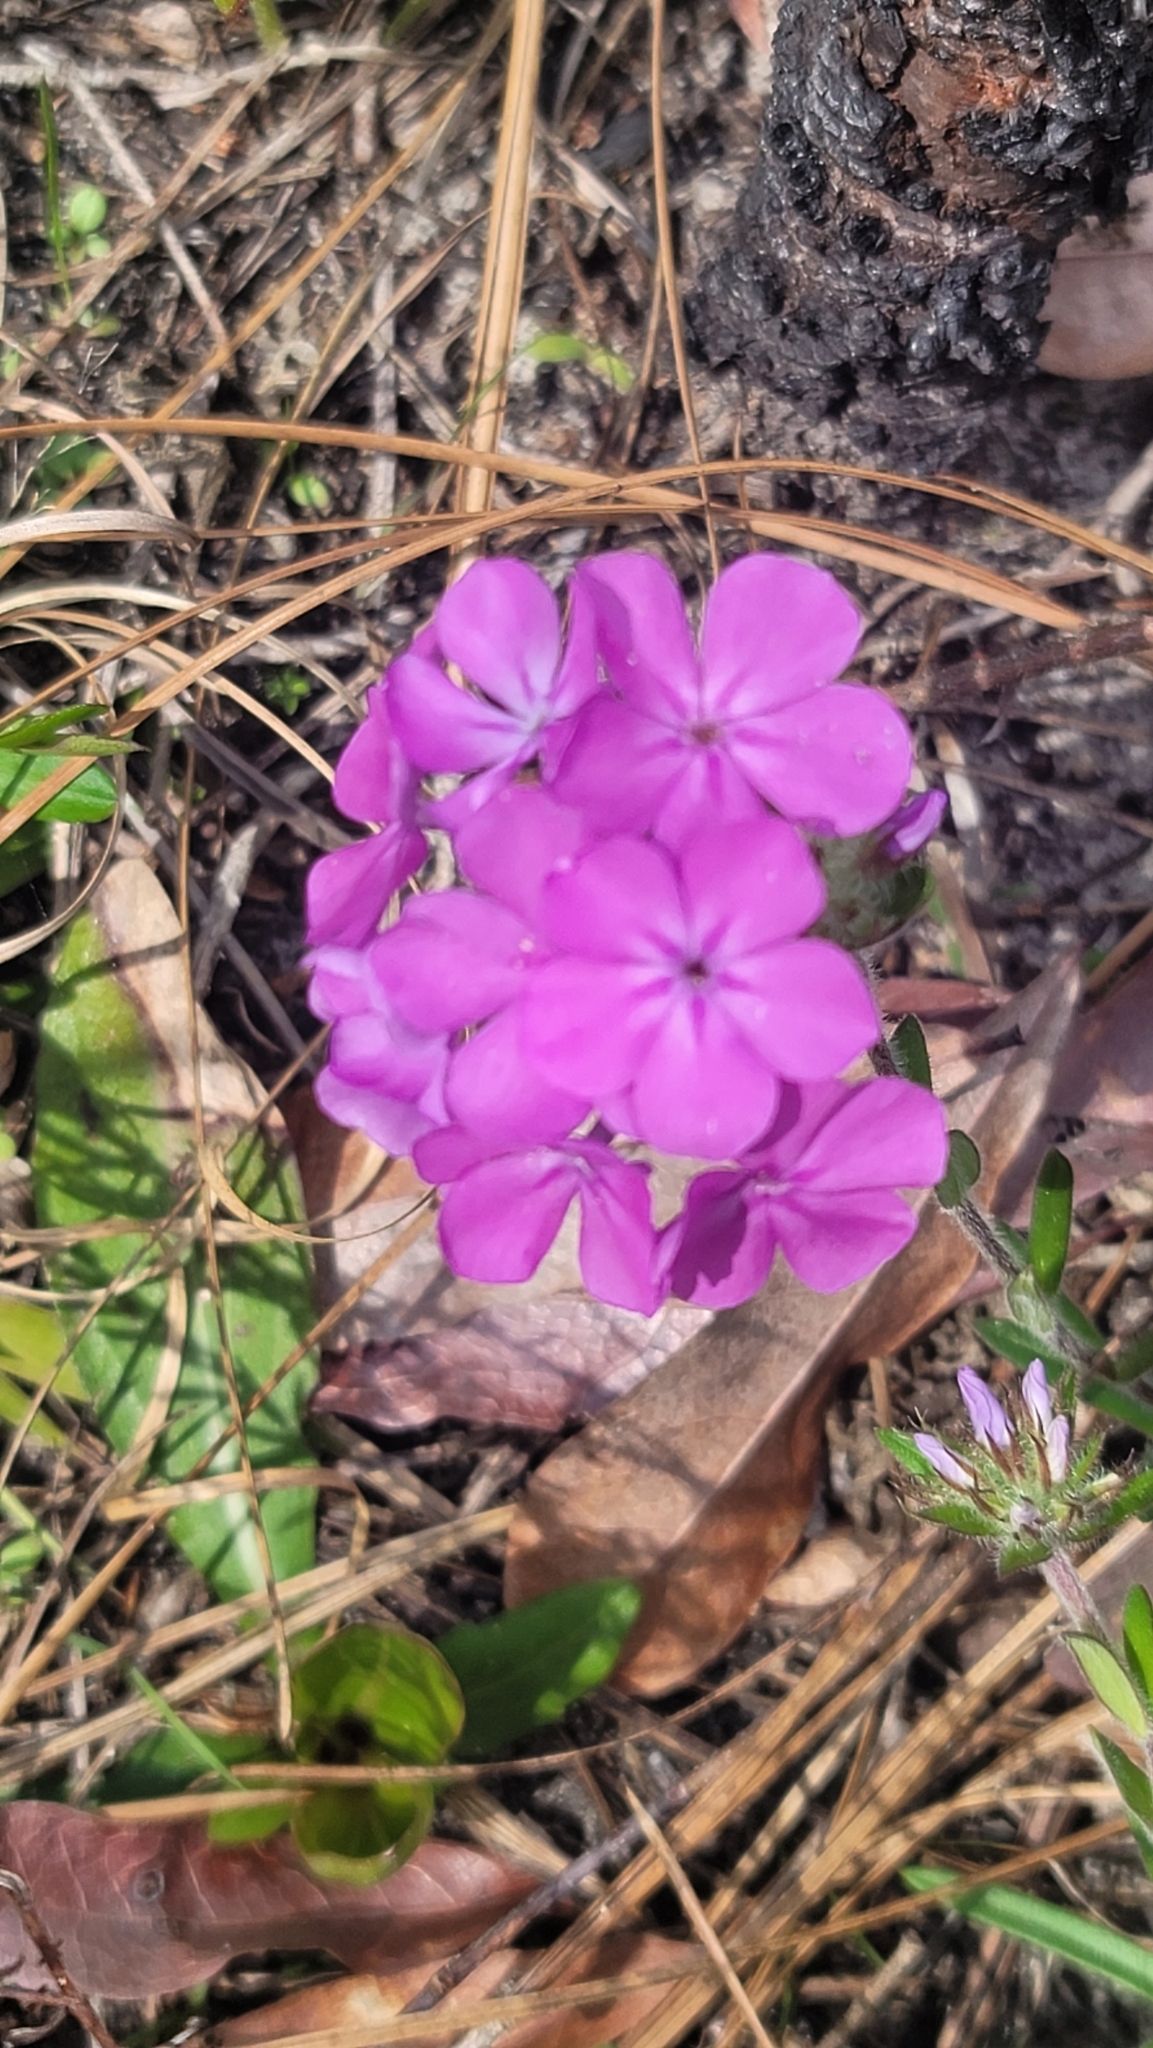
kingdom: Plantae
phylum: Tracheophyta
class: Magnoliopsida
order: Ericales
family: Polemoniaceae
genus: Phlox
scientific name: Phlox amoena
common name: Hairy phlox
